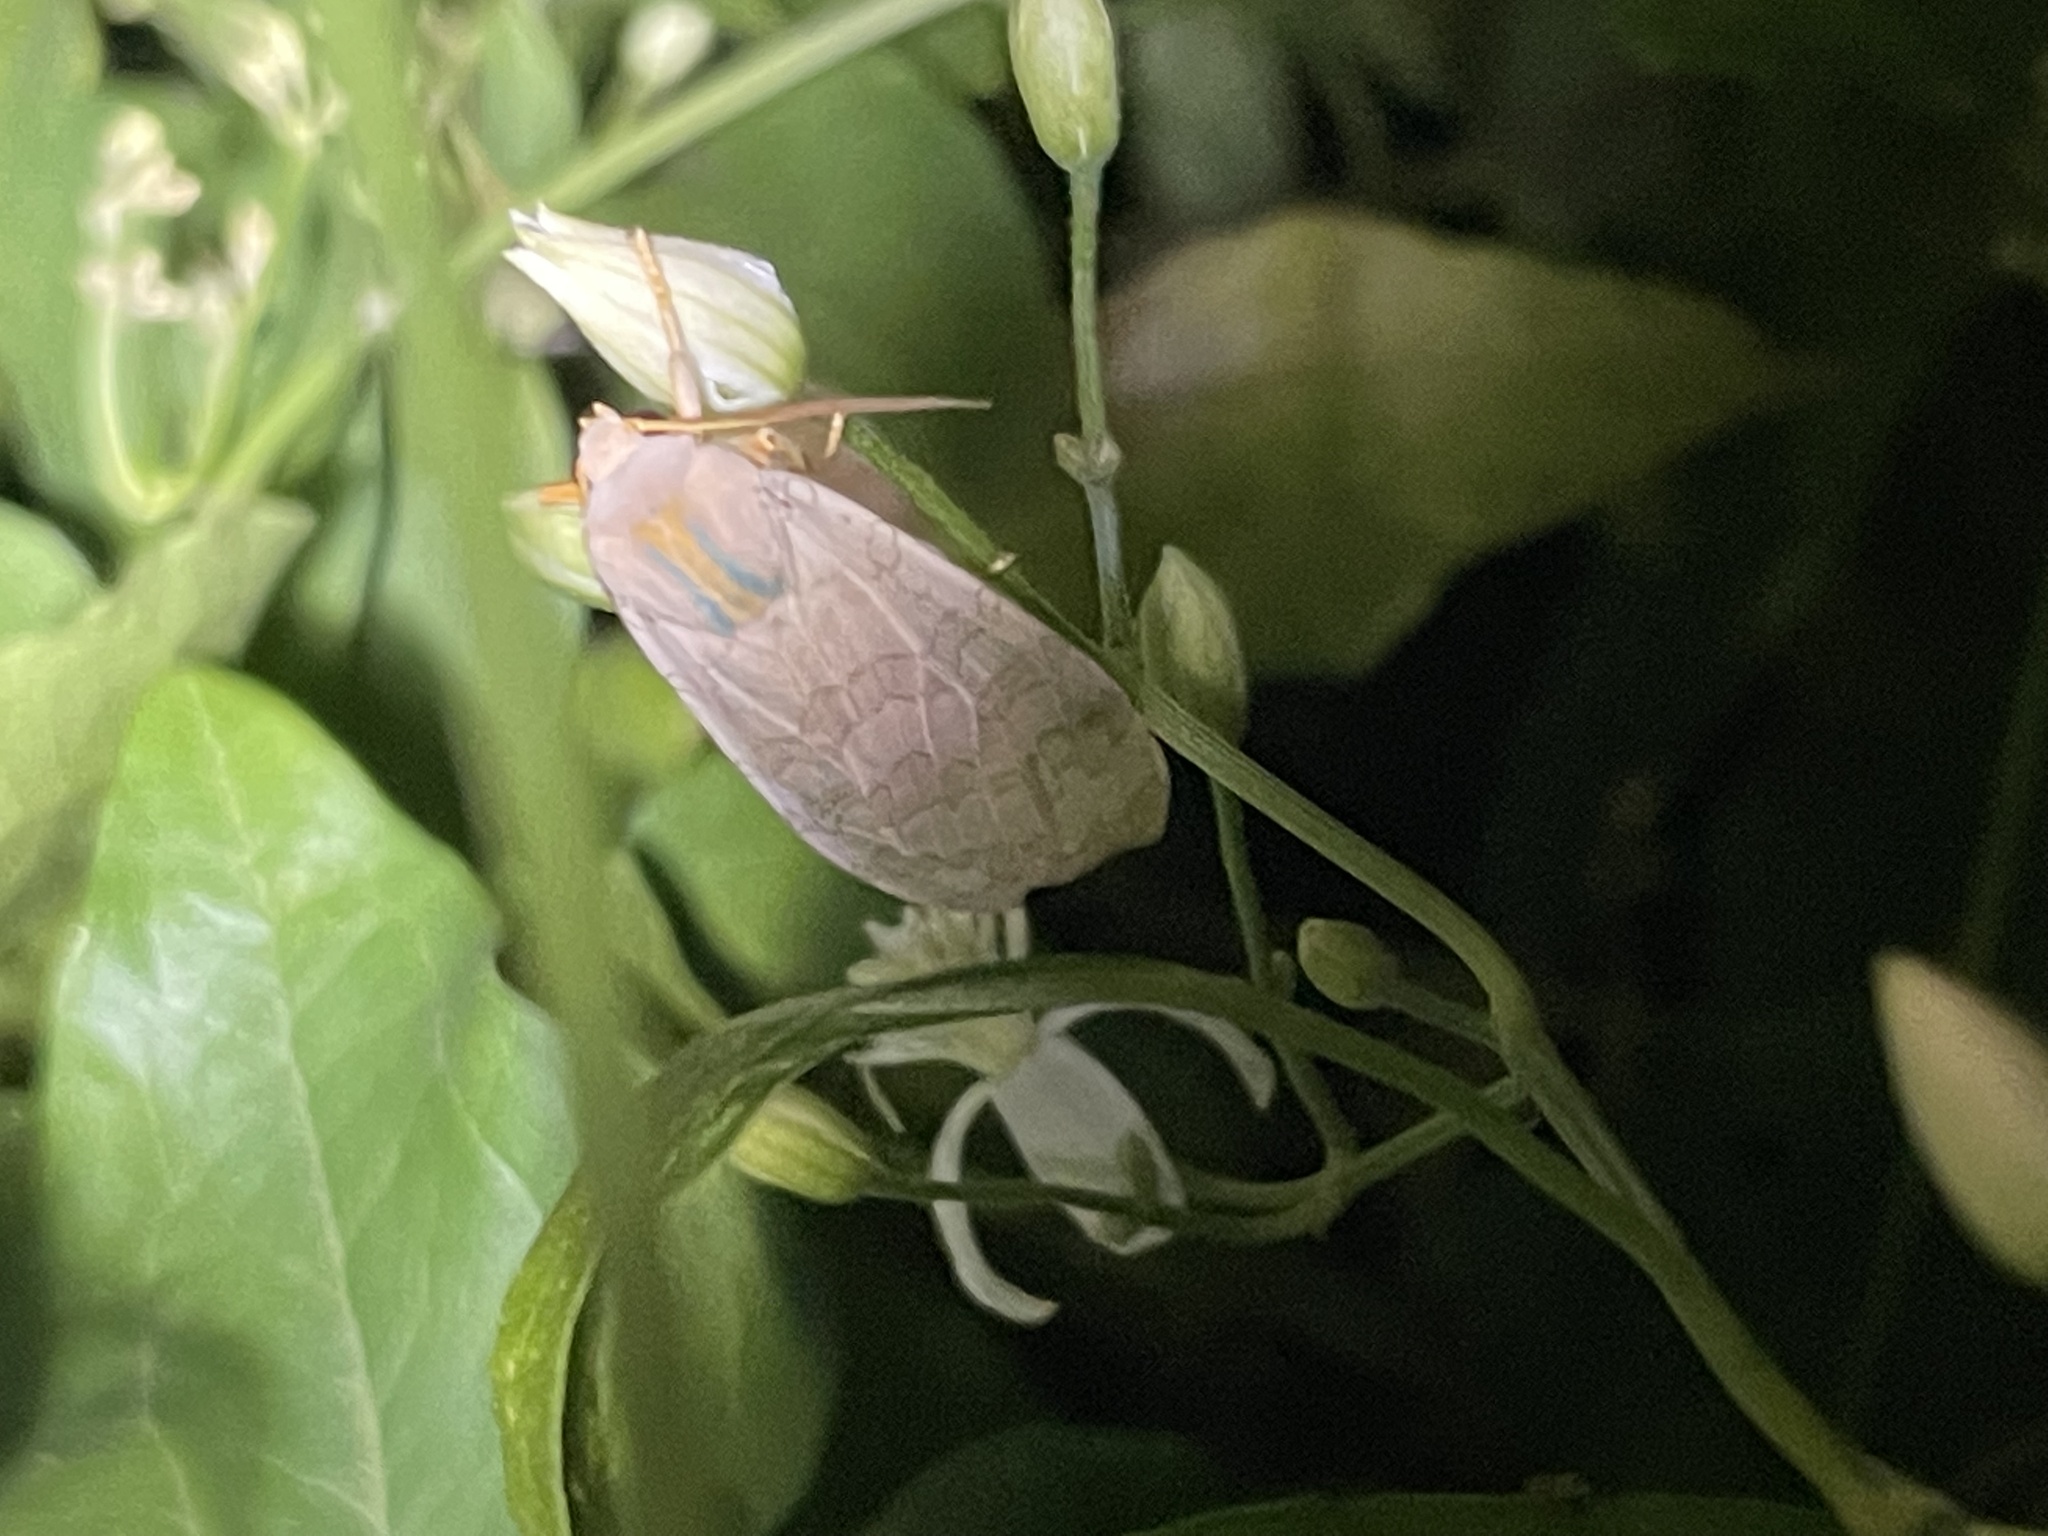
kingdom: Animalia
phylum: Arthropoda
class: Insecta
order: Lepidoptera
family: Erebidae
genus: Halysidota
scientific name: Halysidota
